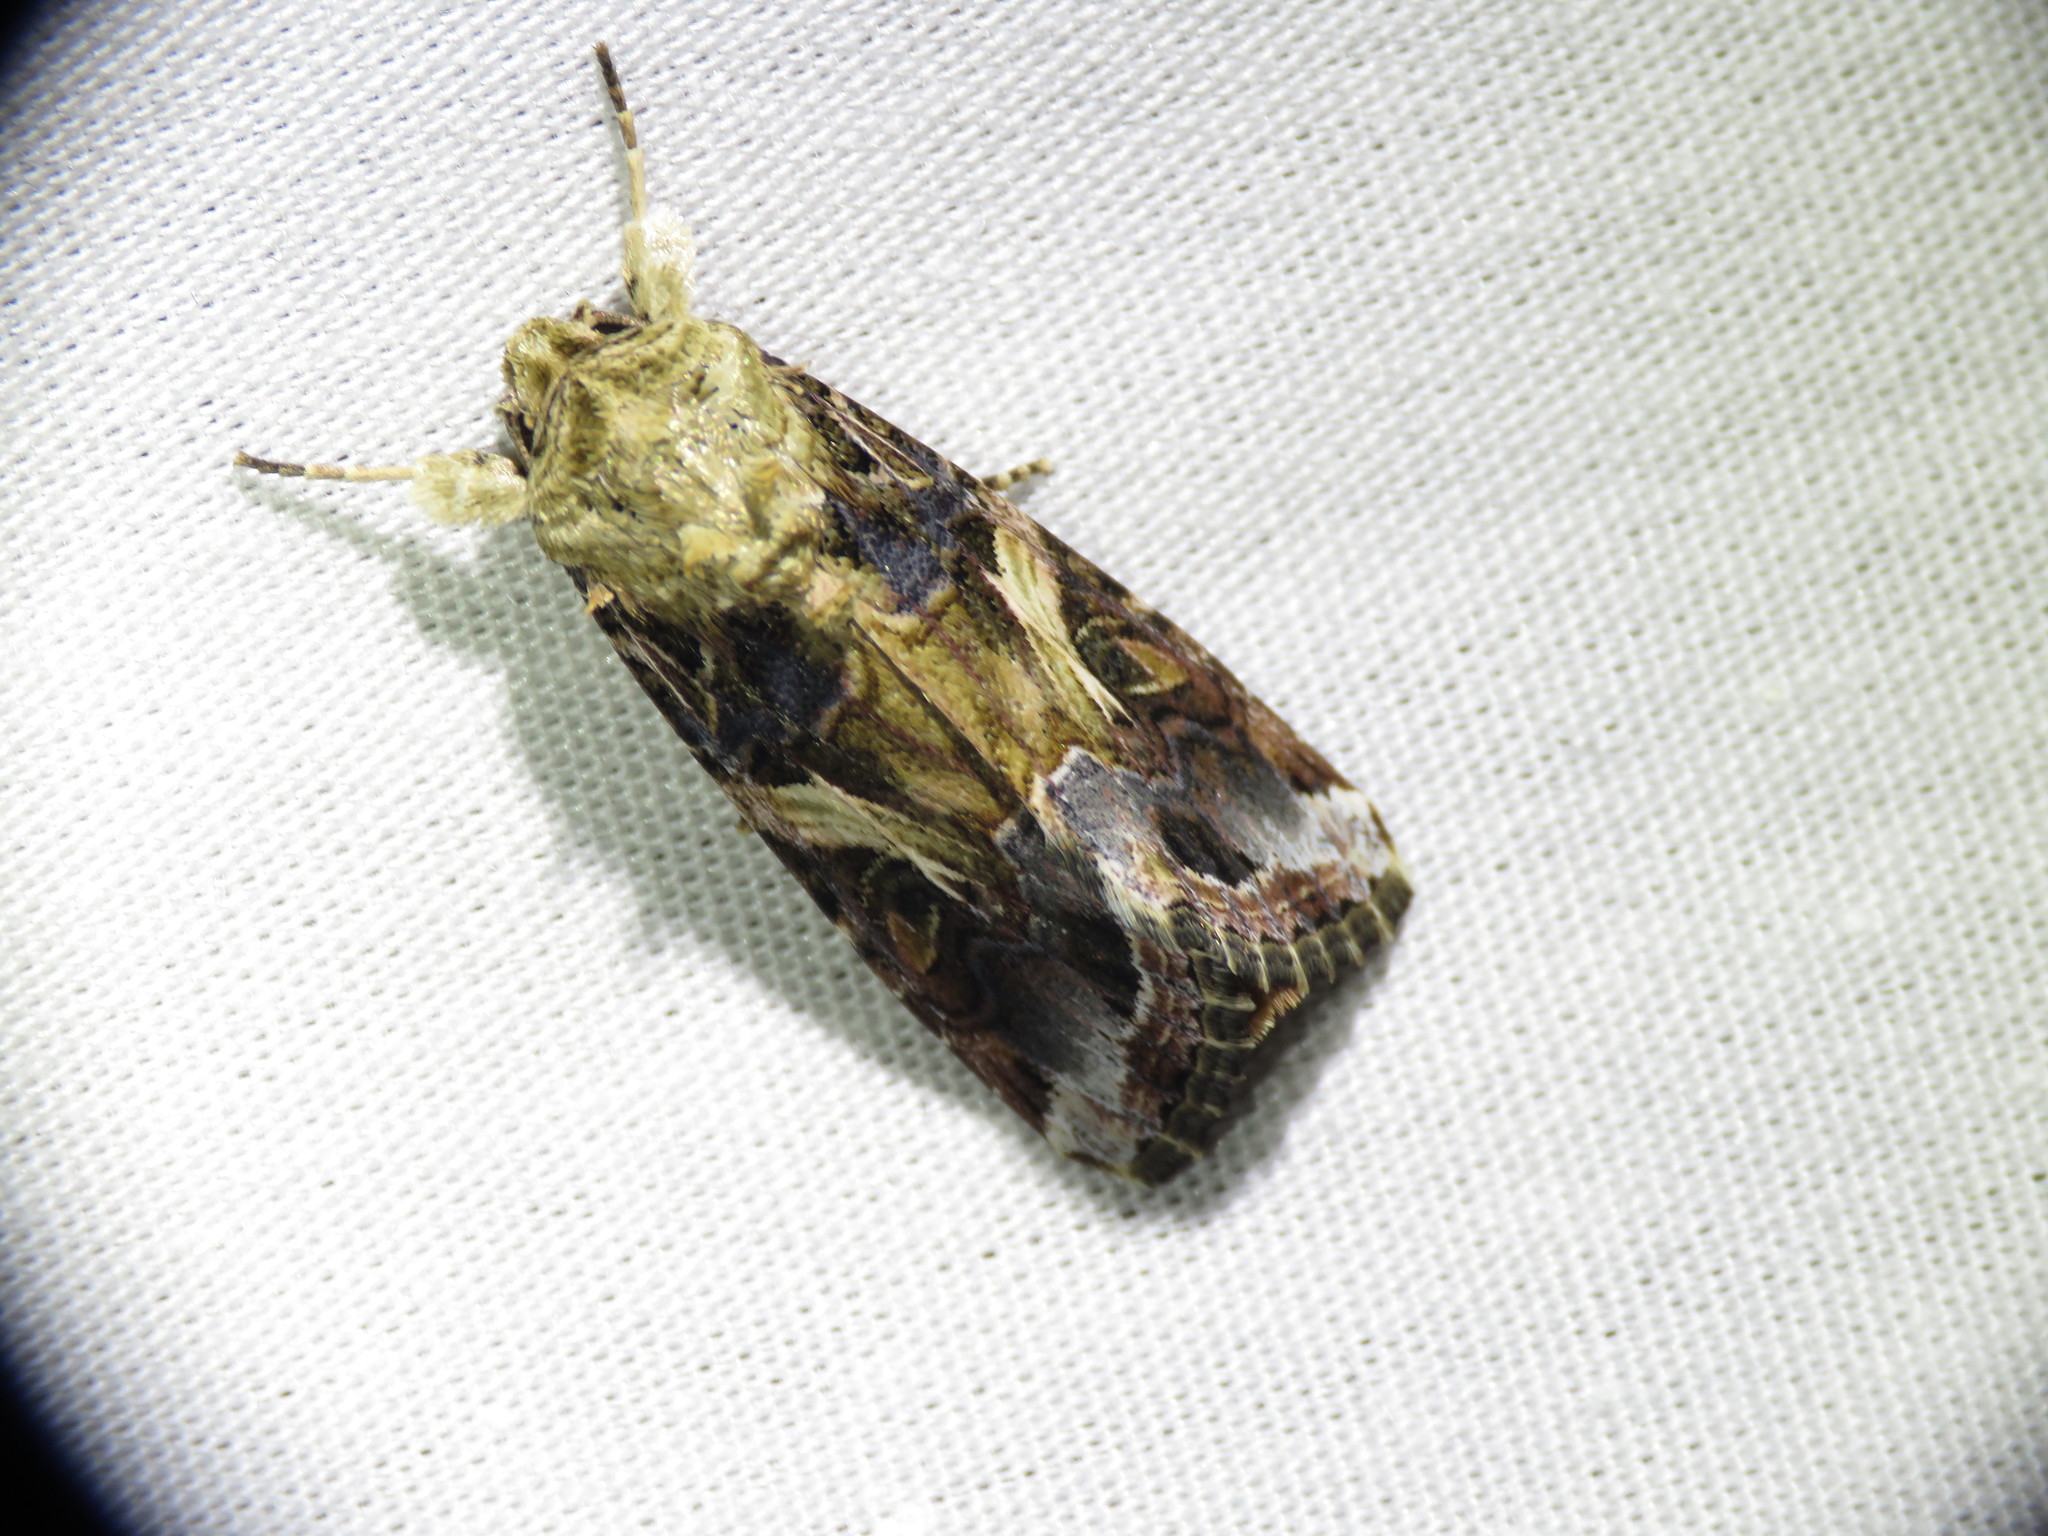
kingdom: Animalia
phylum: Arthropoda
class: Insecta
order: Lepidoptera
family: Noctuidae
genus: Spodoptera
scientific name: Spodoptera ornithogalli
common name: Yellow-striped armyworm
